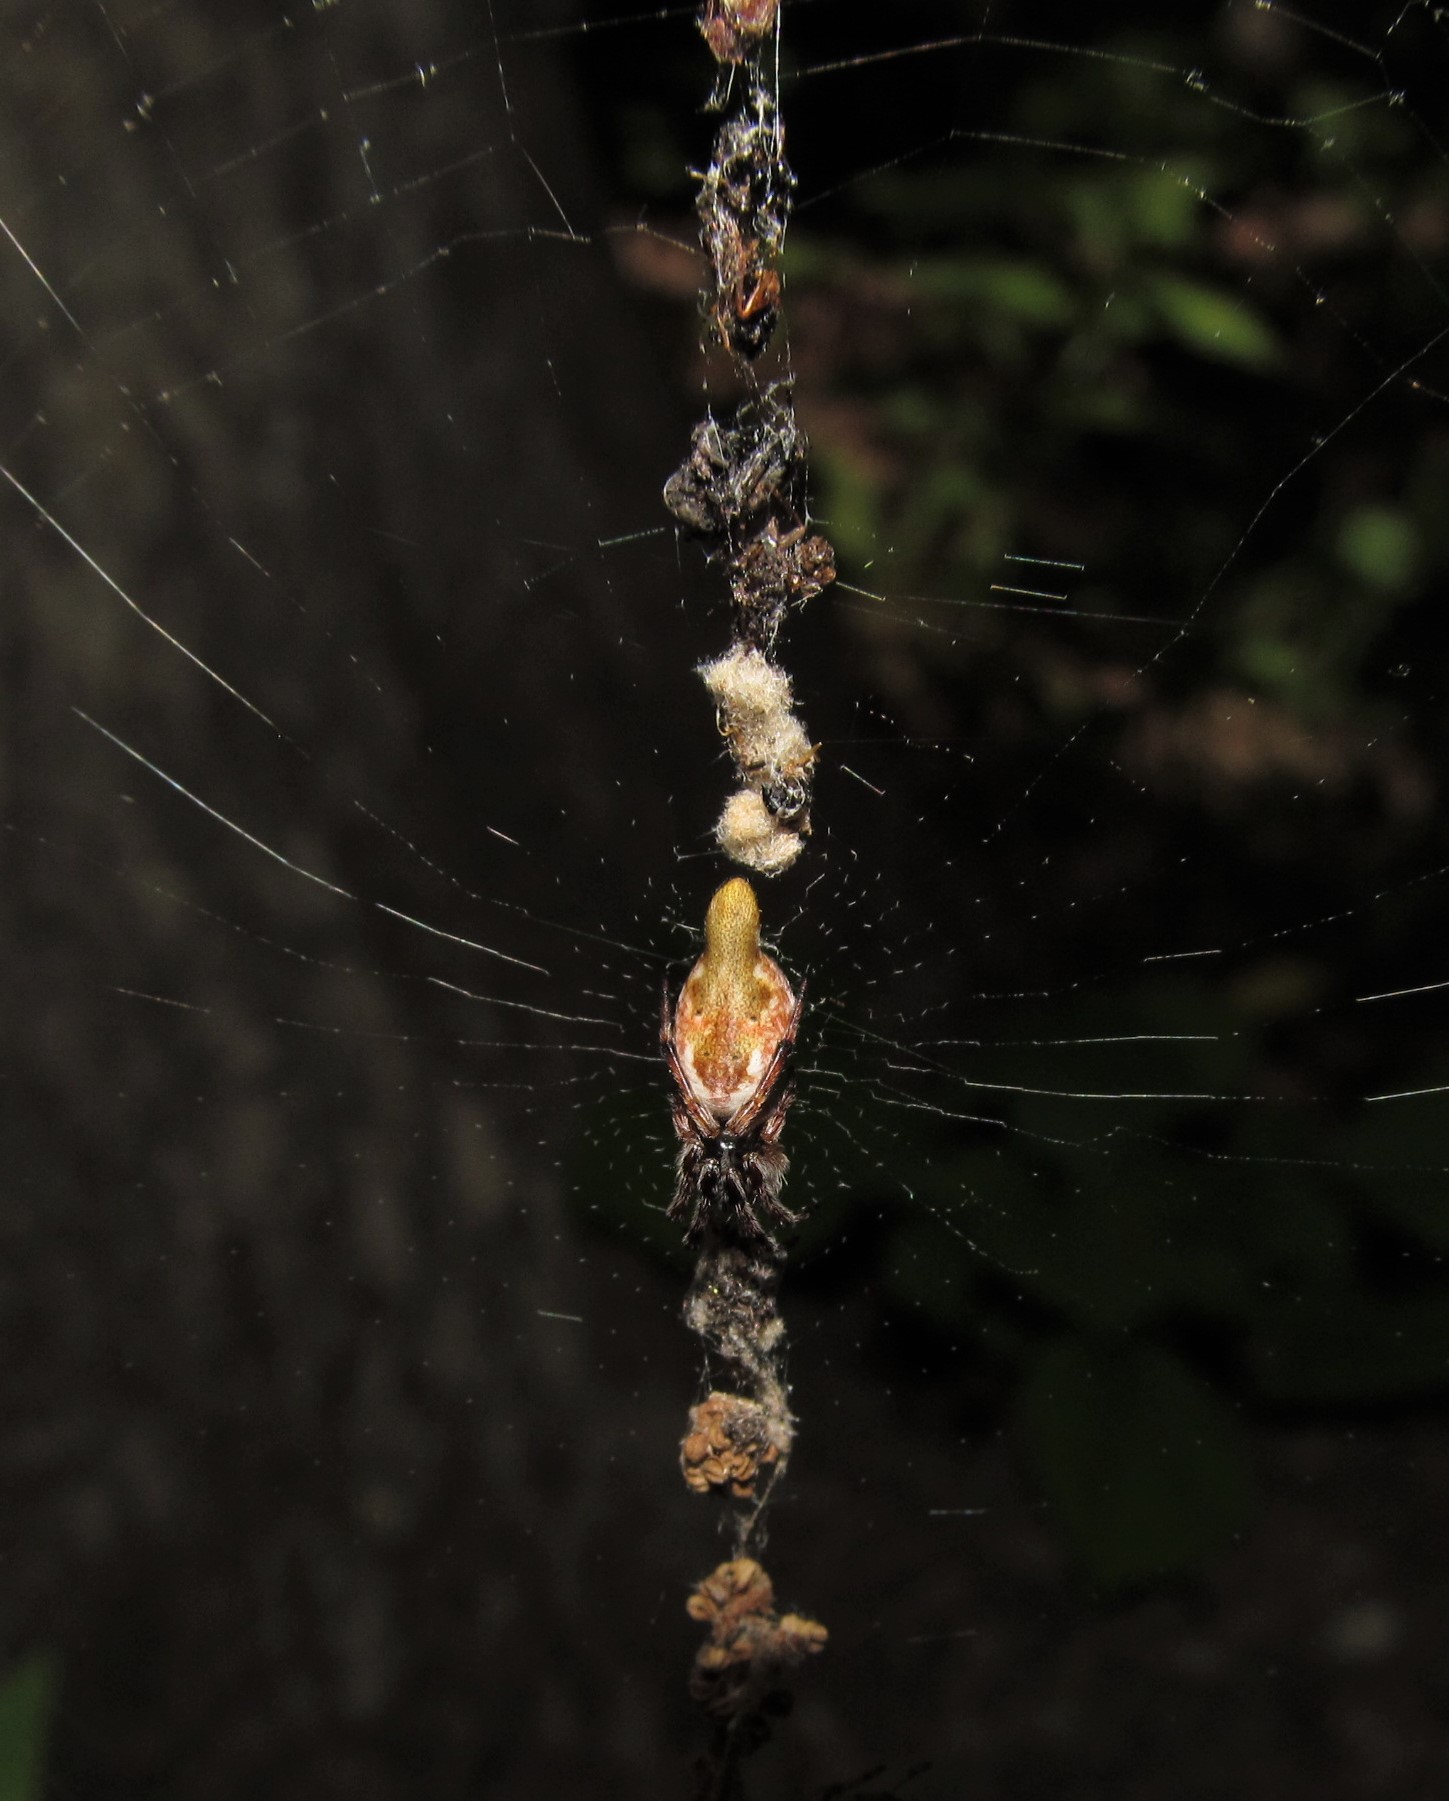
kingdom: Animalia
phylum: Arthropoda
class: Arachnida
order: Araneae
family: Araneidae
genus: Cyclosa
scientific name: Cyclosa conica
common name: Conical trashline orbweaver
